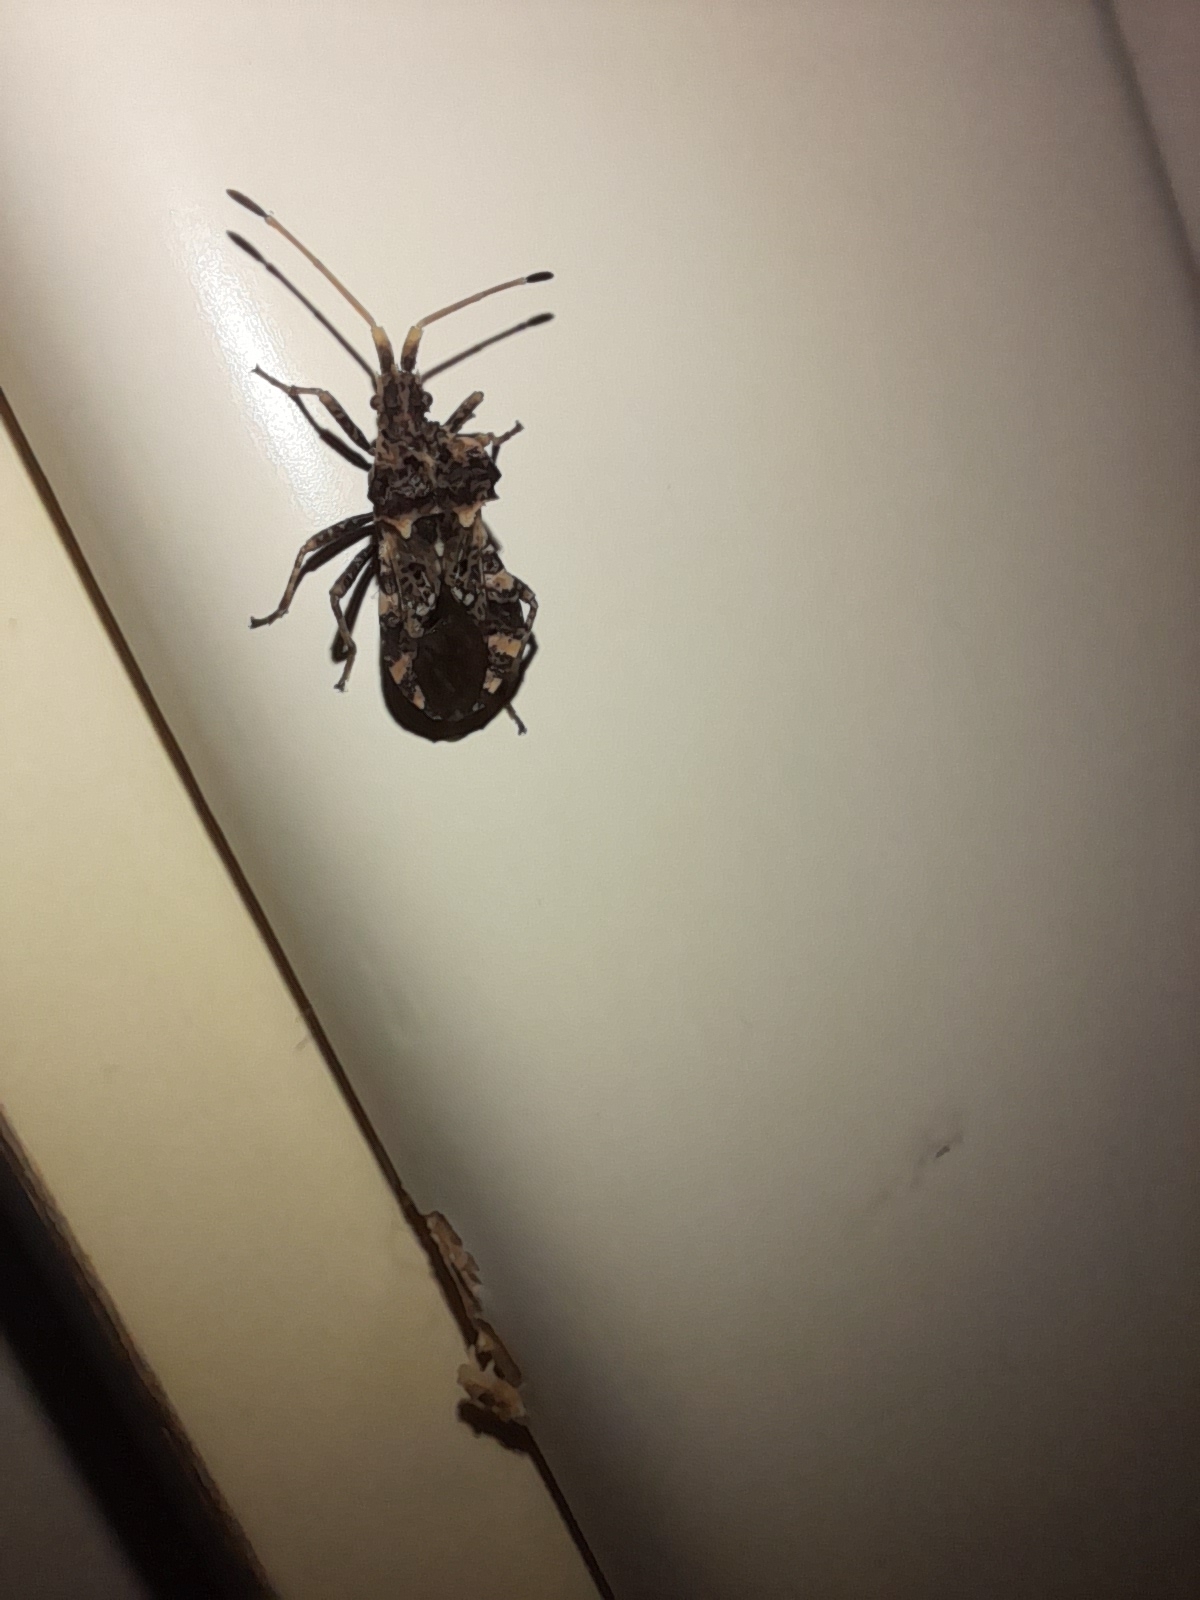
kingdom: Animalia
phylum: Arthropoda
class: Insecta
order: Hemiptera
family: Coreidae
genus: Centrocoris
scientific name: Centrocoris variegatus
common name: Leaf-footed bug
